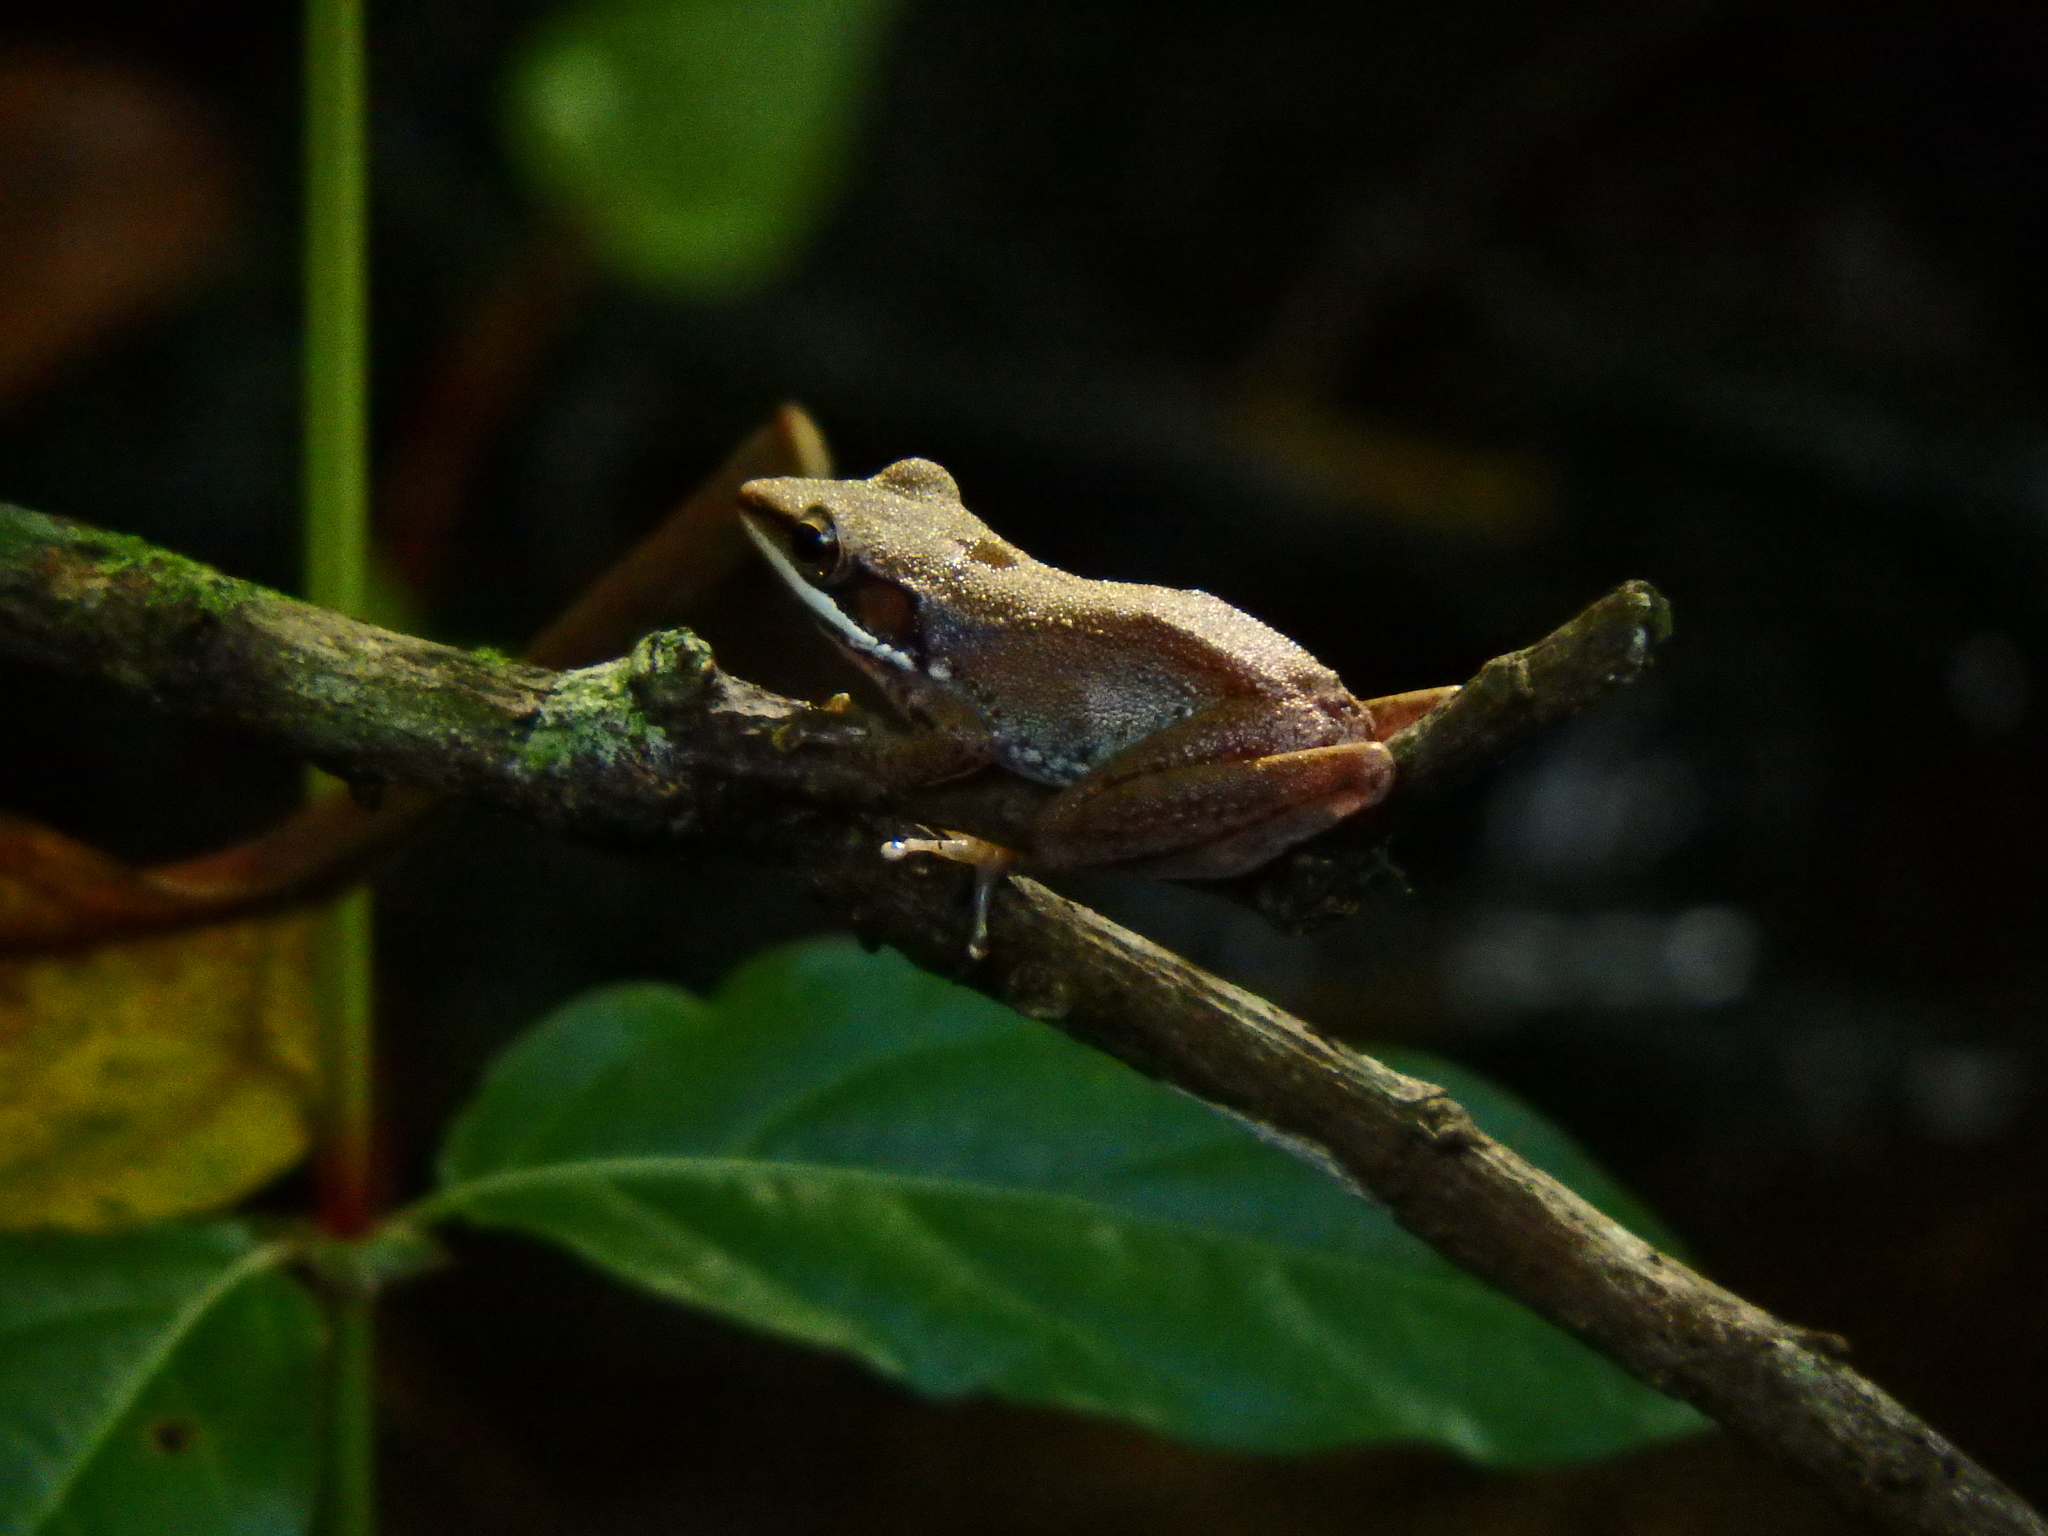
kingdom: Animalia
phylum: Chordata
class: Amphibia
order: Anura
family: Ranidae
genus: Chalcorana
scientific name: Chalcorana labialis
